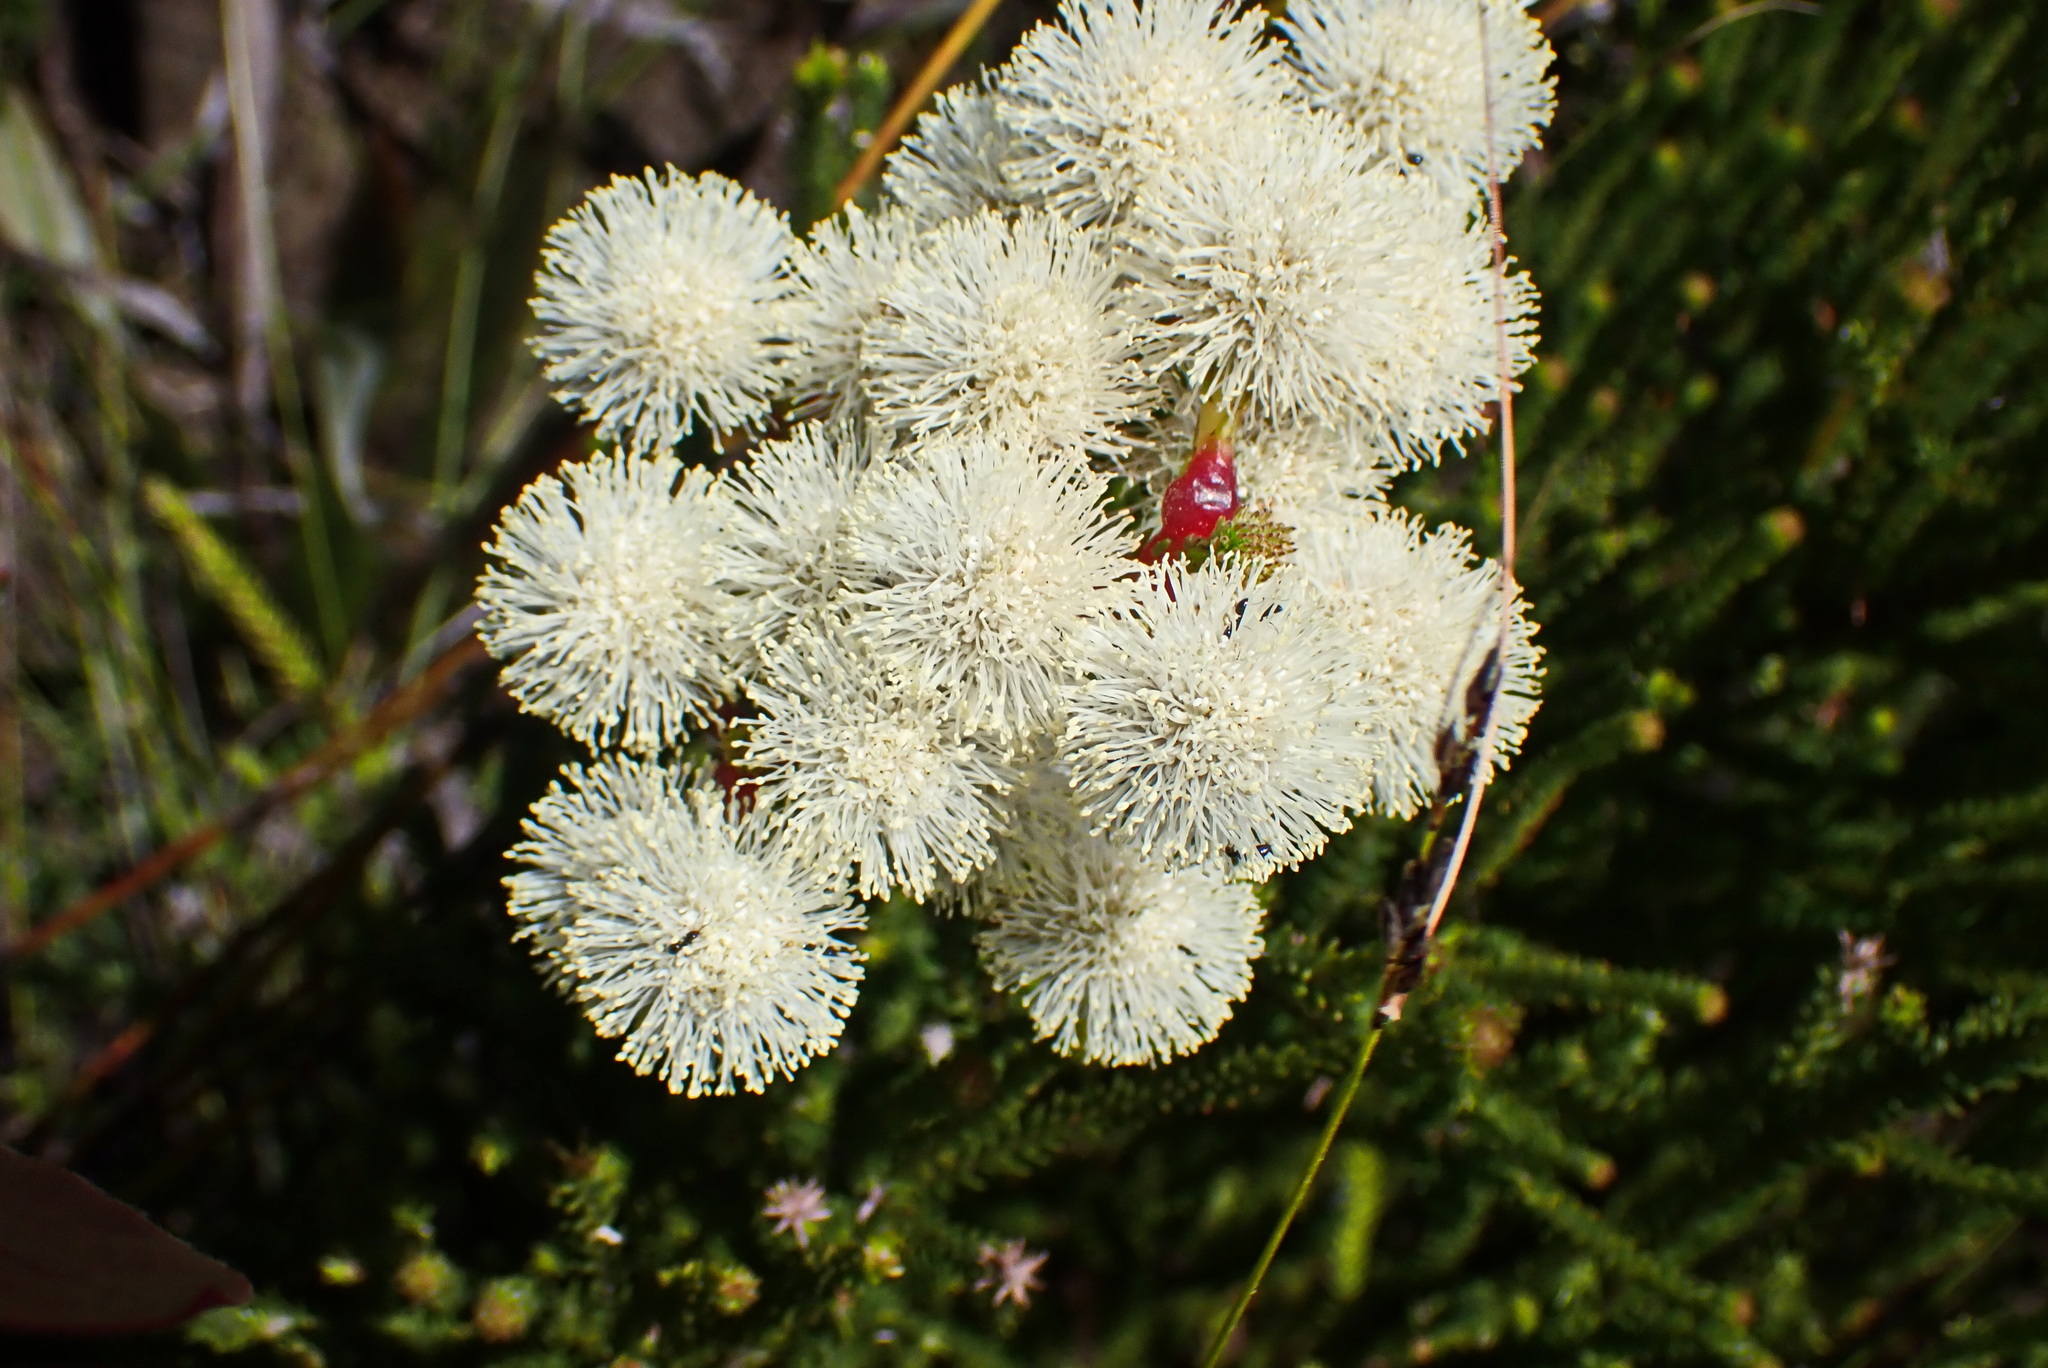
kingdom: Plantae
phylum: Tracheophyta
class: Magnoliopsida
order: Bruniales
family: Bruniaceae
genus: Berzelia
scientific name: Berzelia intermedia
